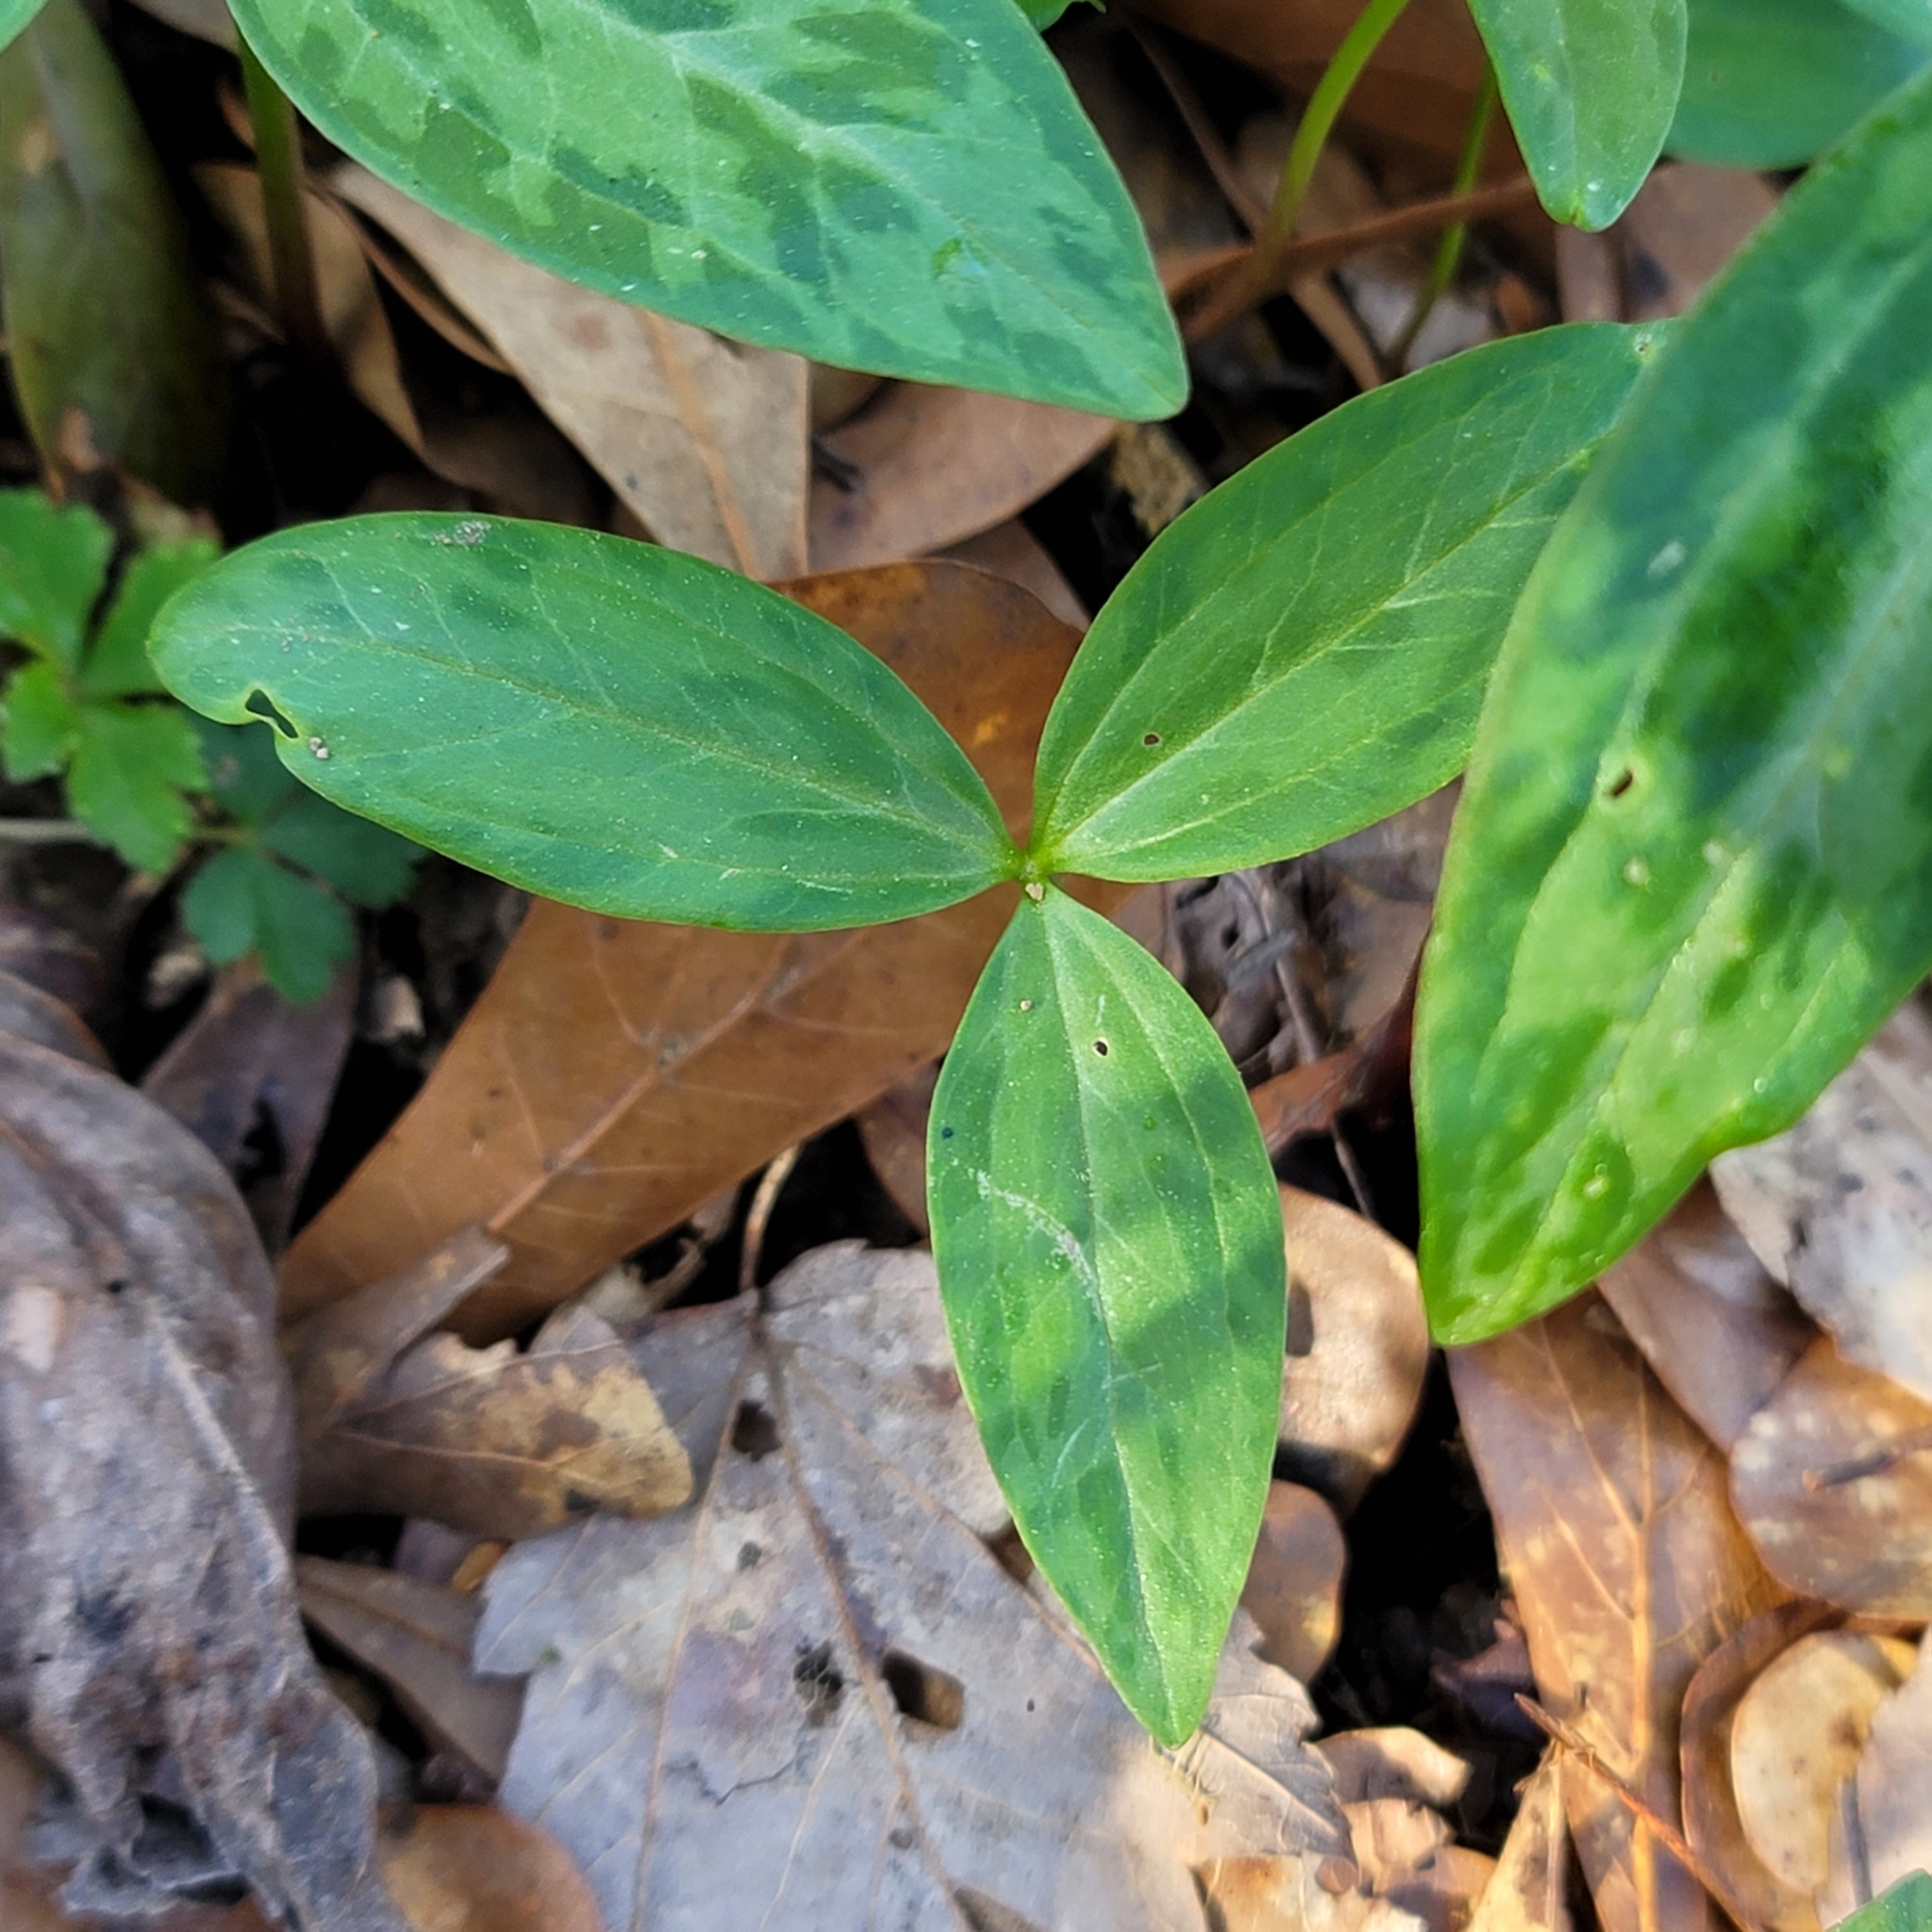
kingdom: Plantae
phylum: Tracheophyta
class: Liliopsida
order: Liliales
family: Melanthiaceae
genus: Trillium
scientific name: Trillium lancifolium
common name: Lance-leaved trillium
